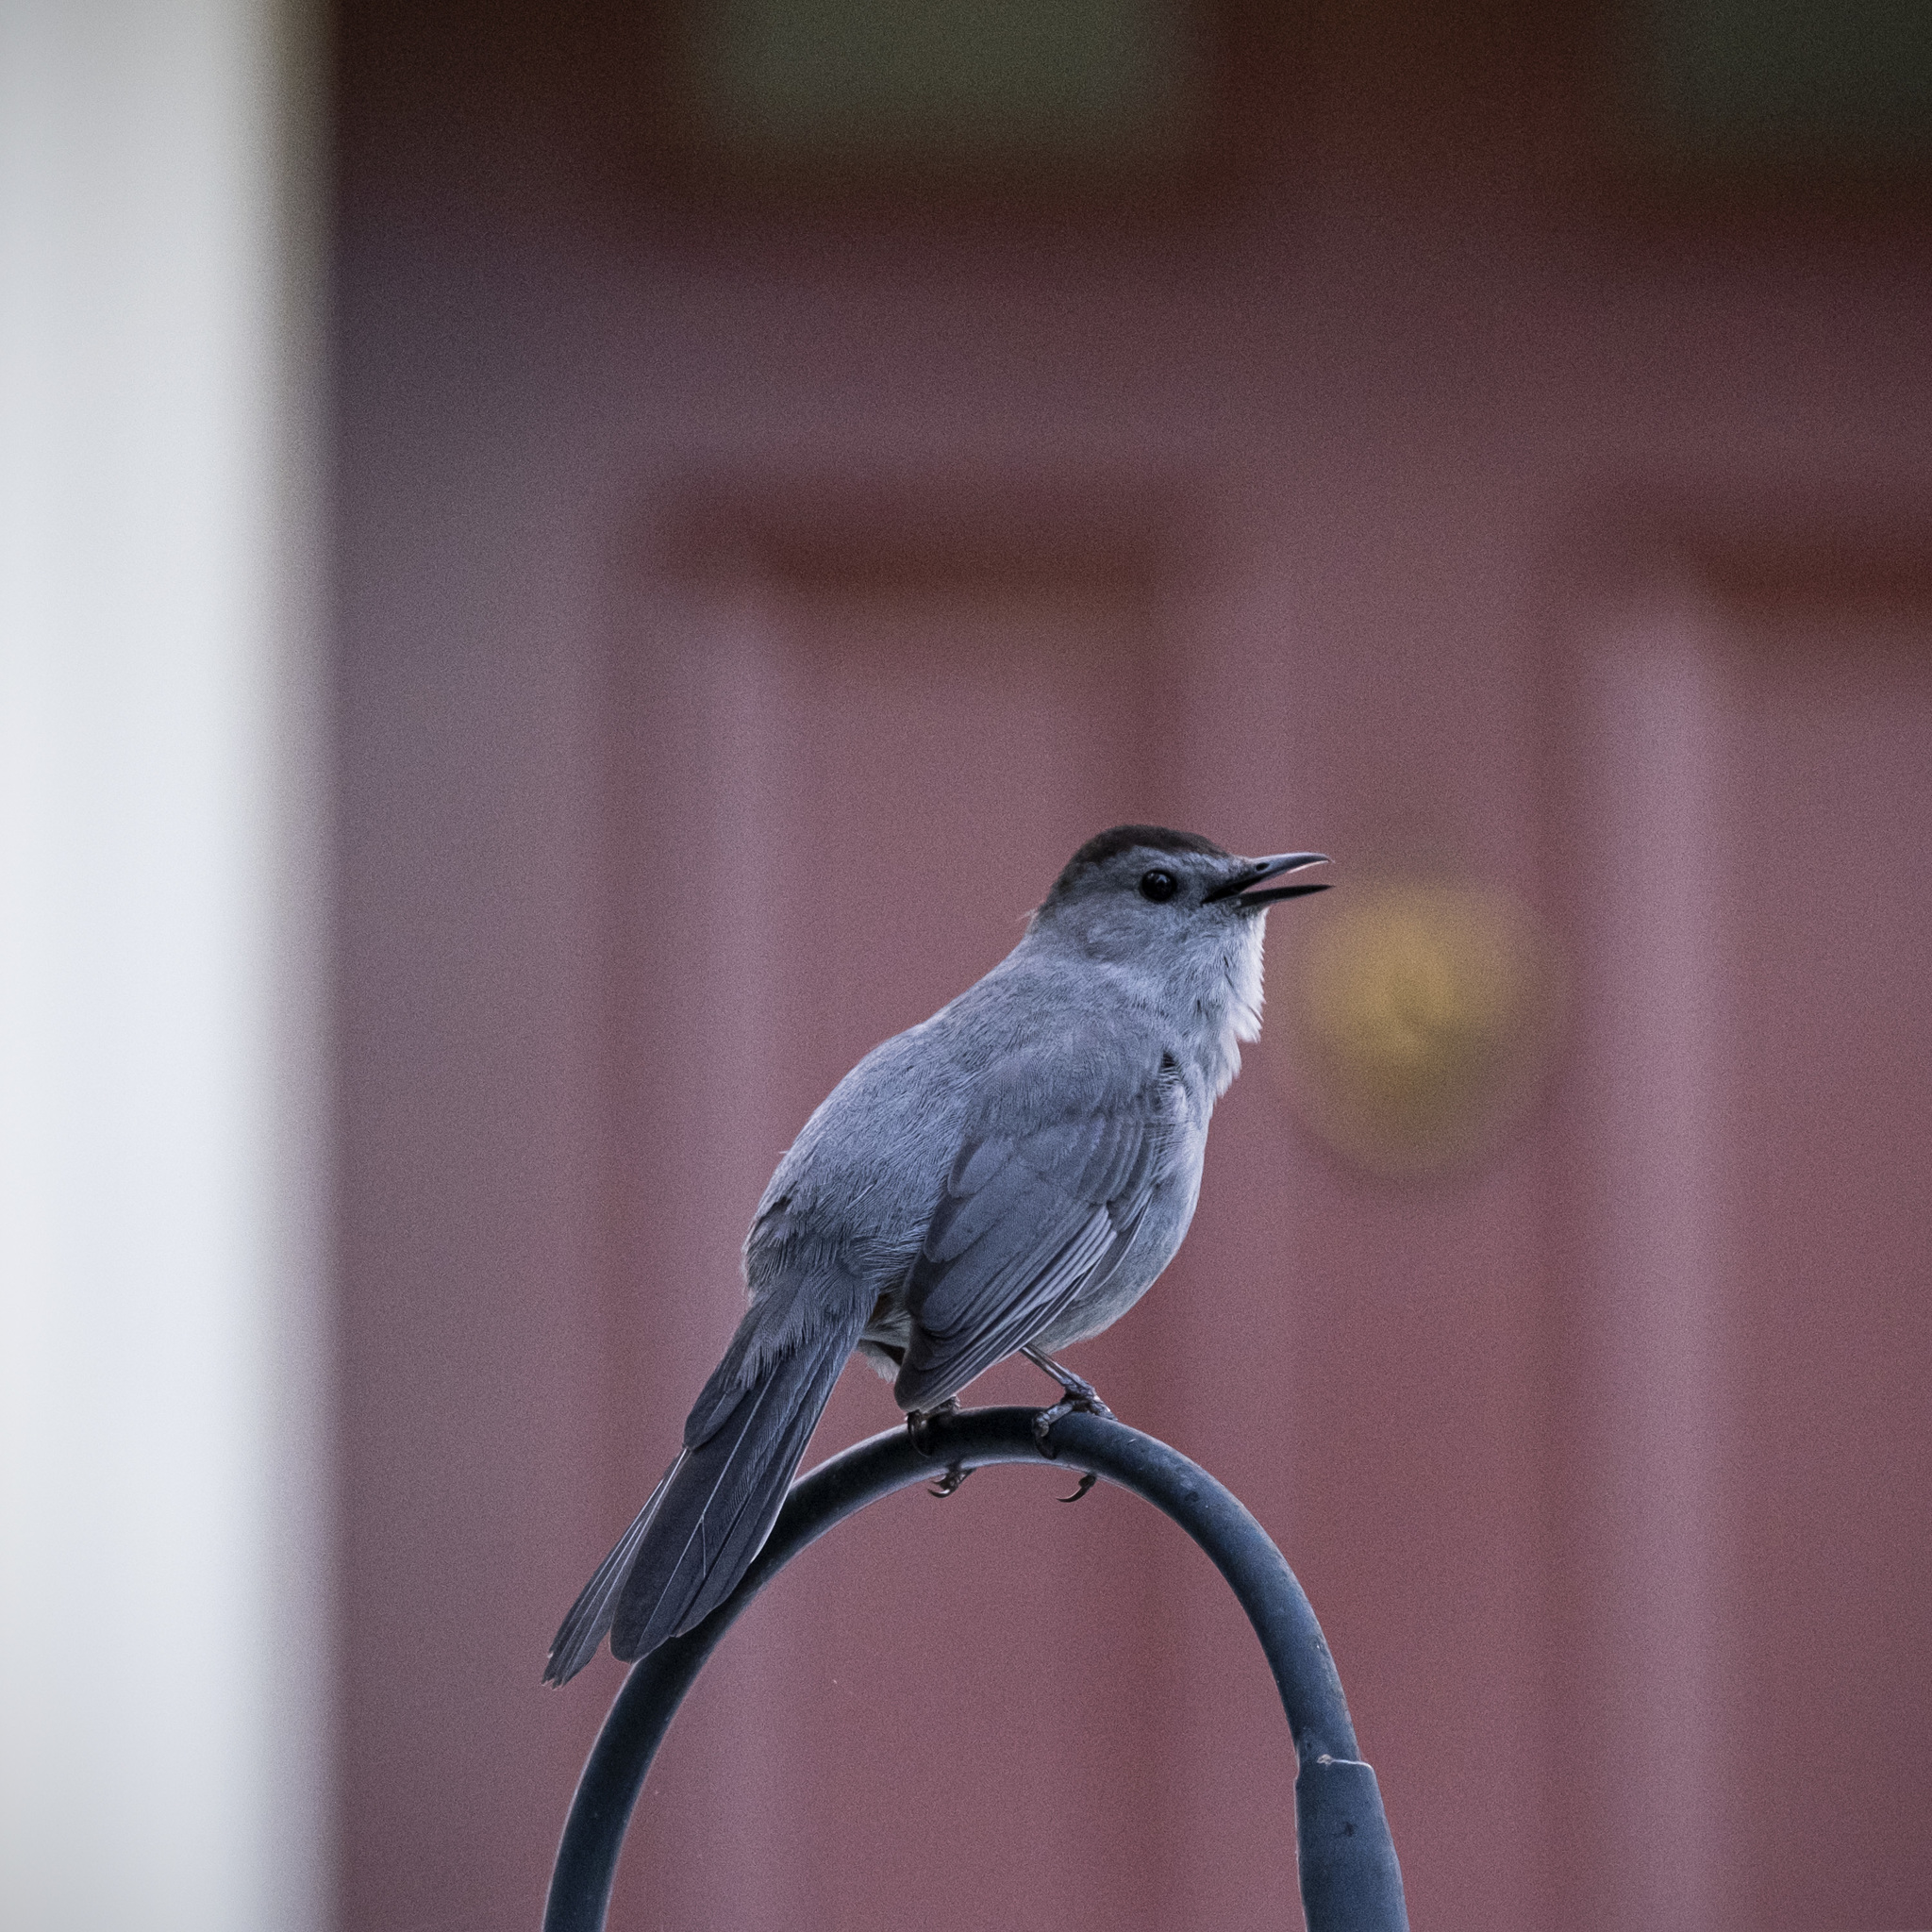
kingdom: Animalia
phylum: Chordata
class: Aves
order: Passeriformes
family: Mimidae
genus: Dumetella
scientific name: Dumetella carolinensis
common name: Gray catbird
